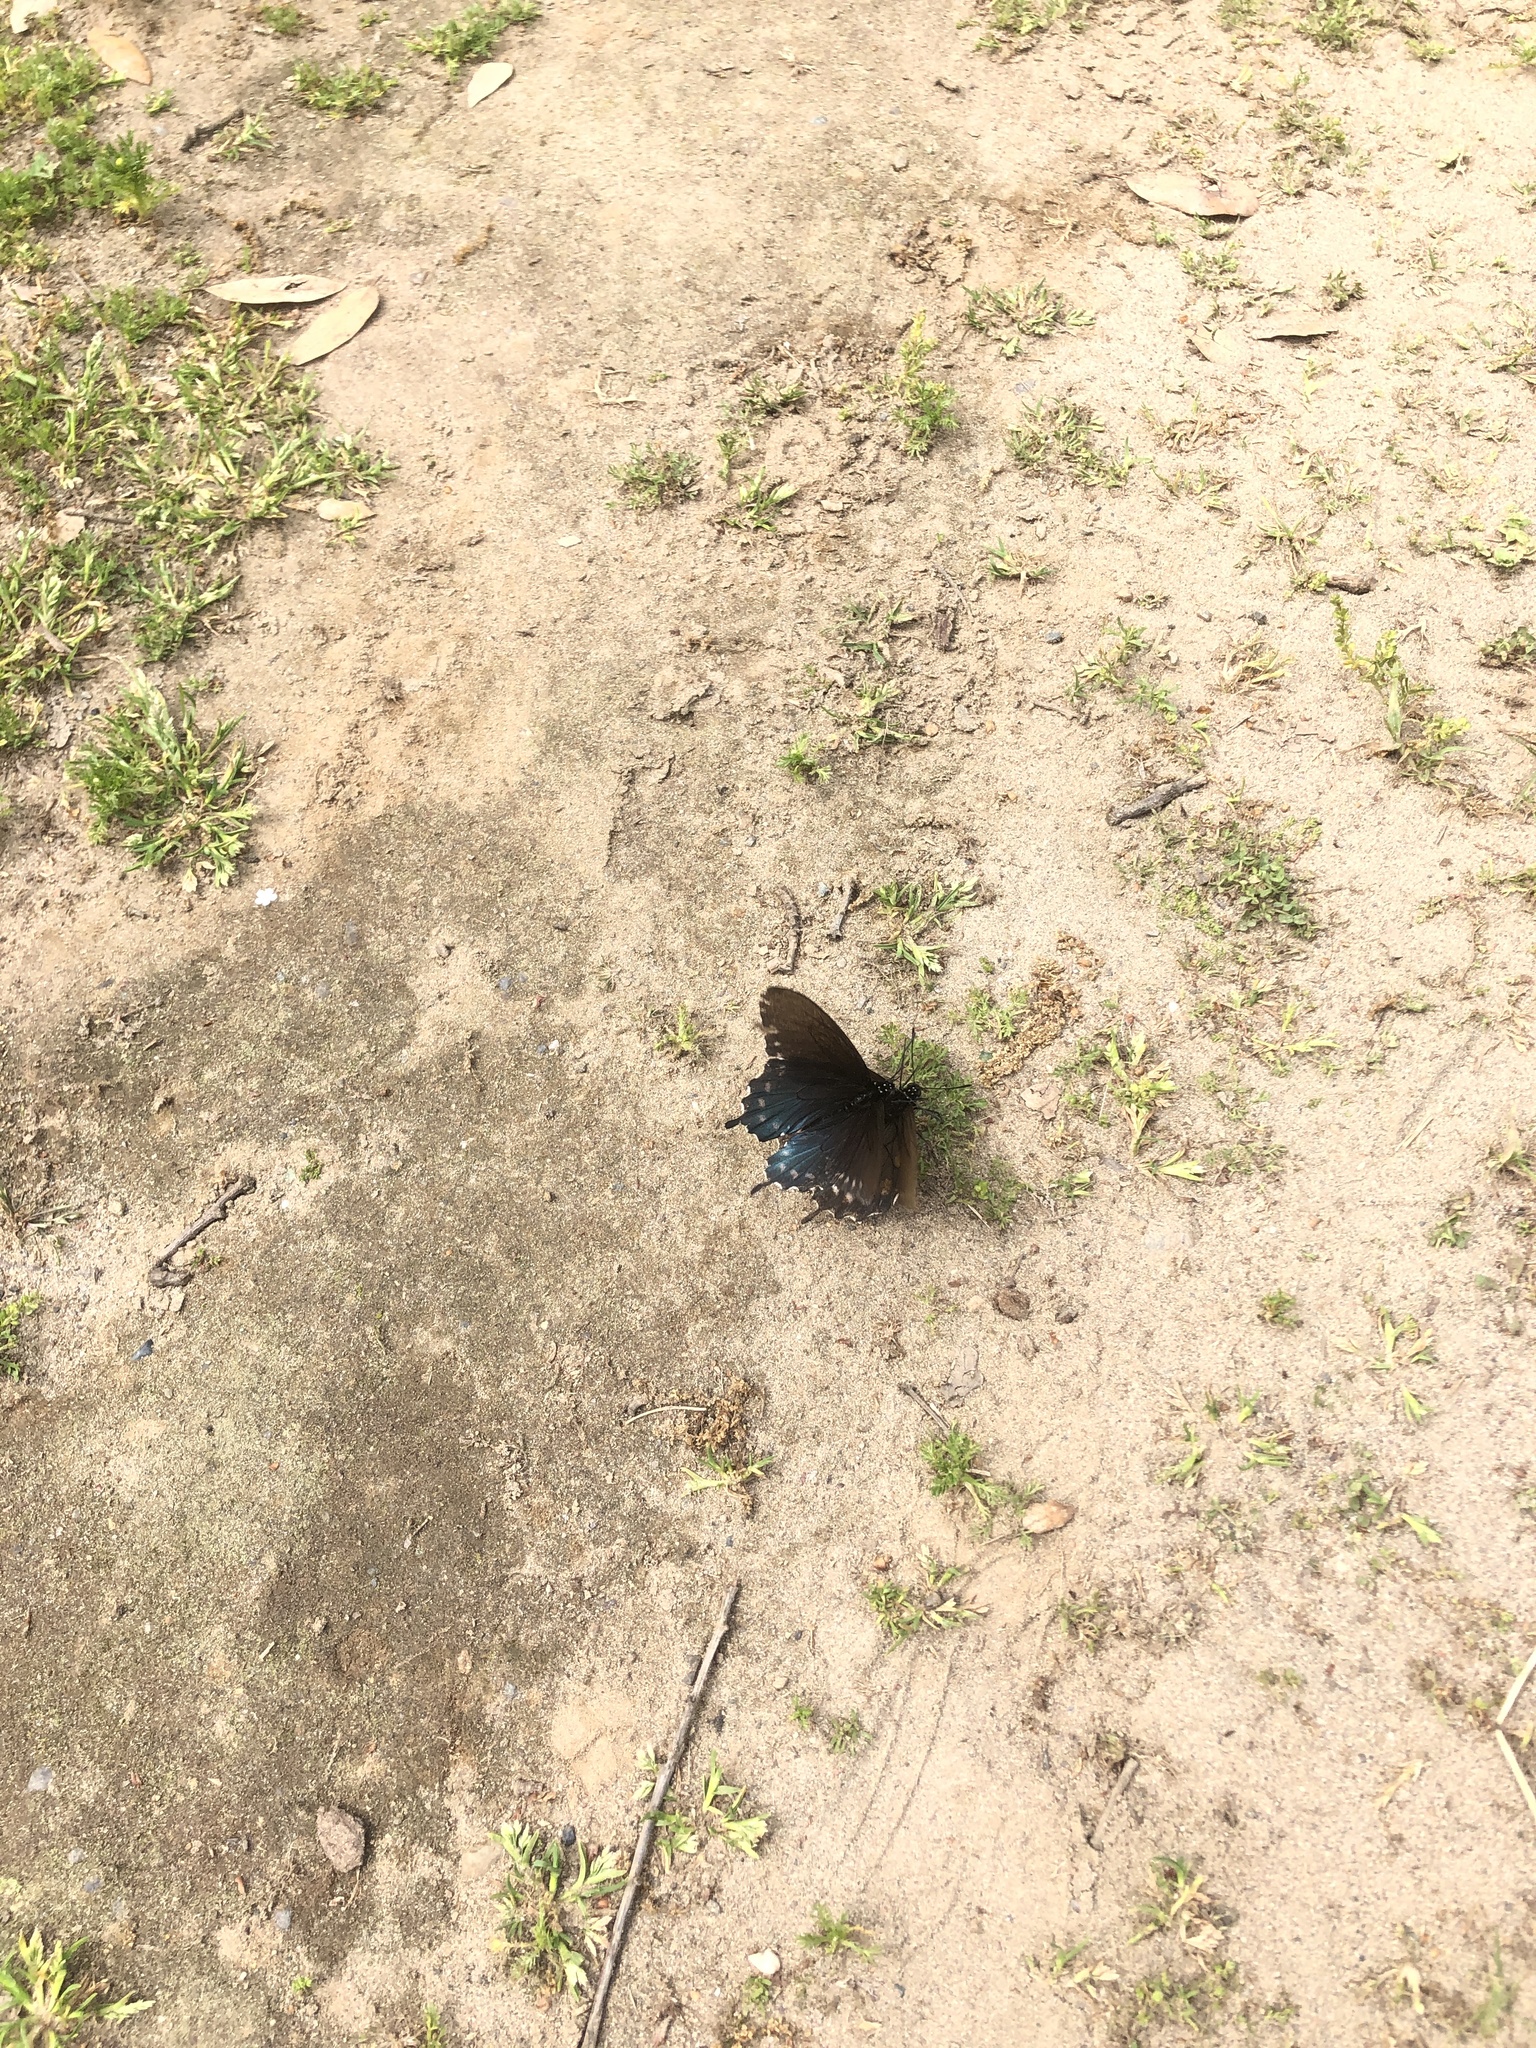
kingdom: Animalia
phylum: Arthropoda
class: Insecta
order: Lepidoptera
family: Papilionidae
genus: Battus
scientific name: Battus philenor
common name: Pipevine swallowtail
